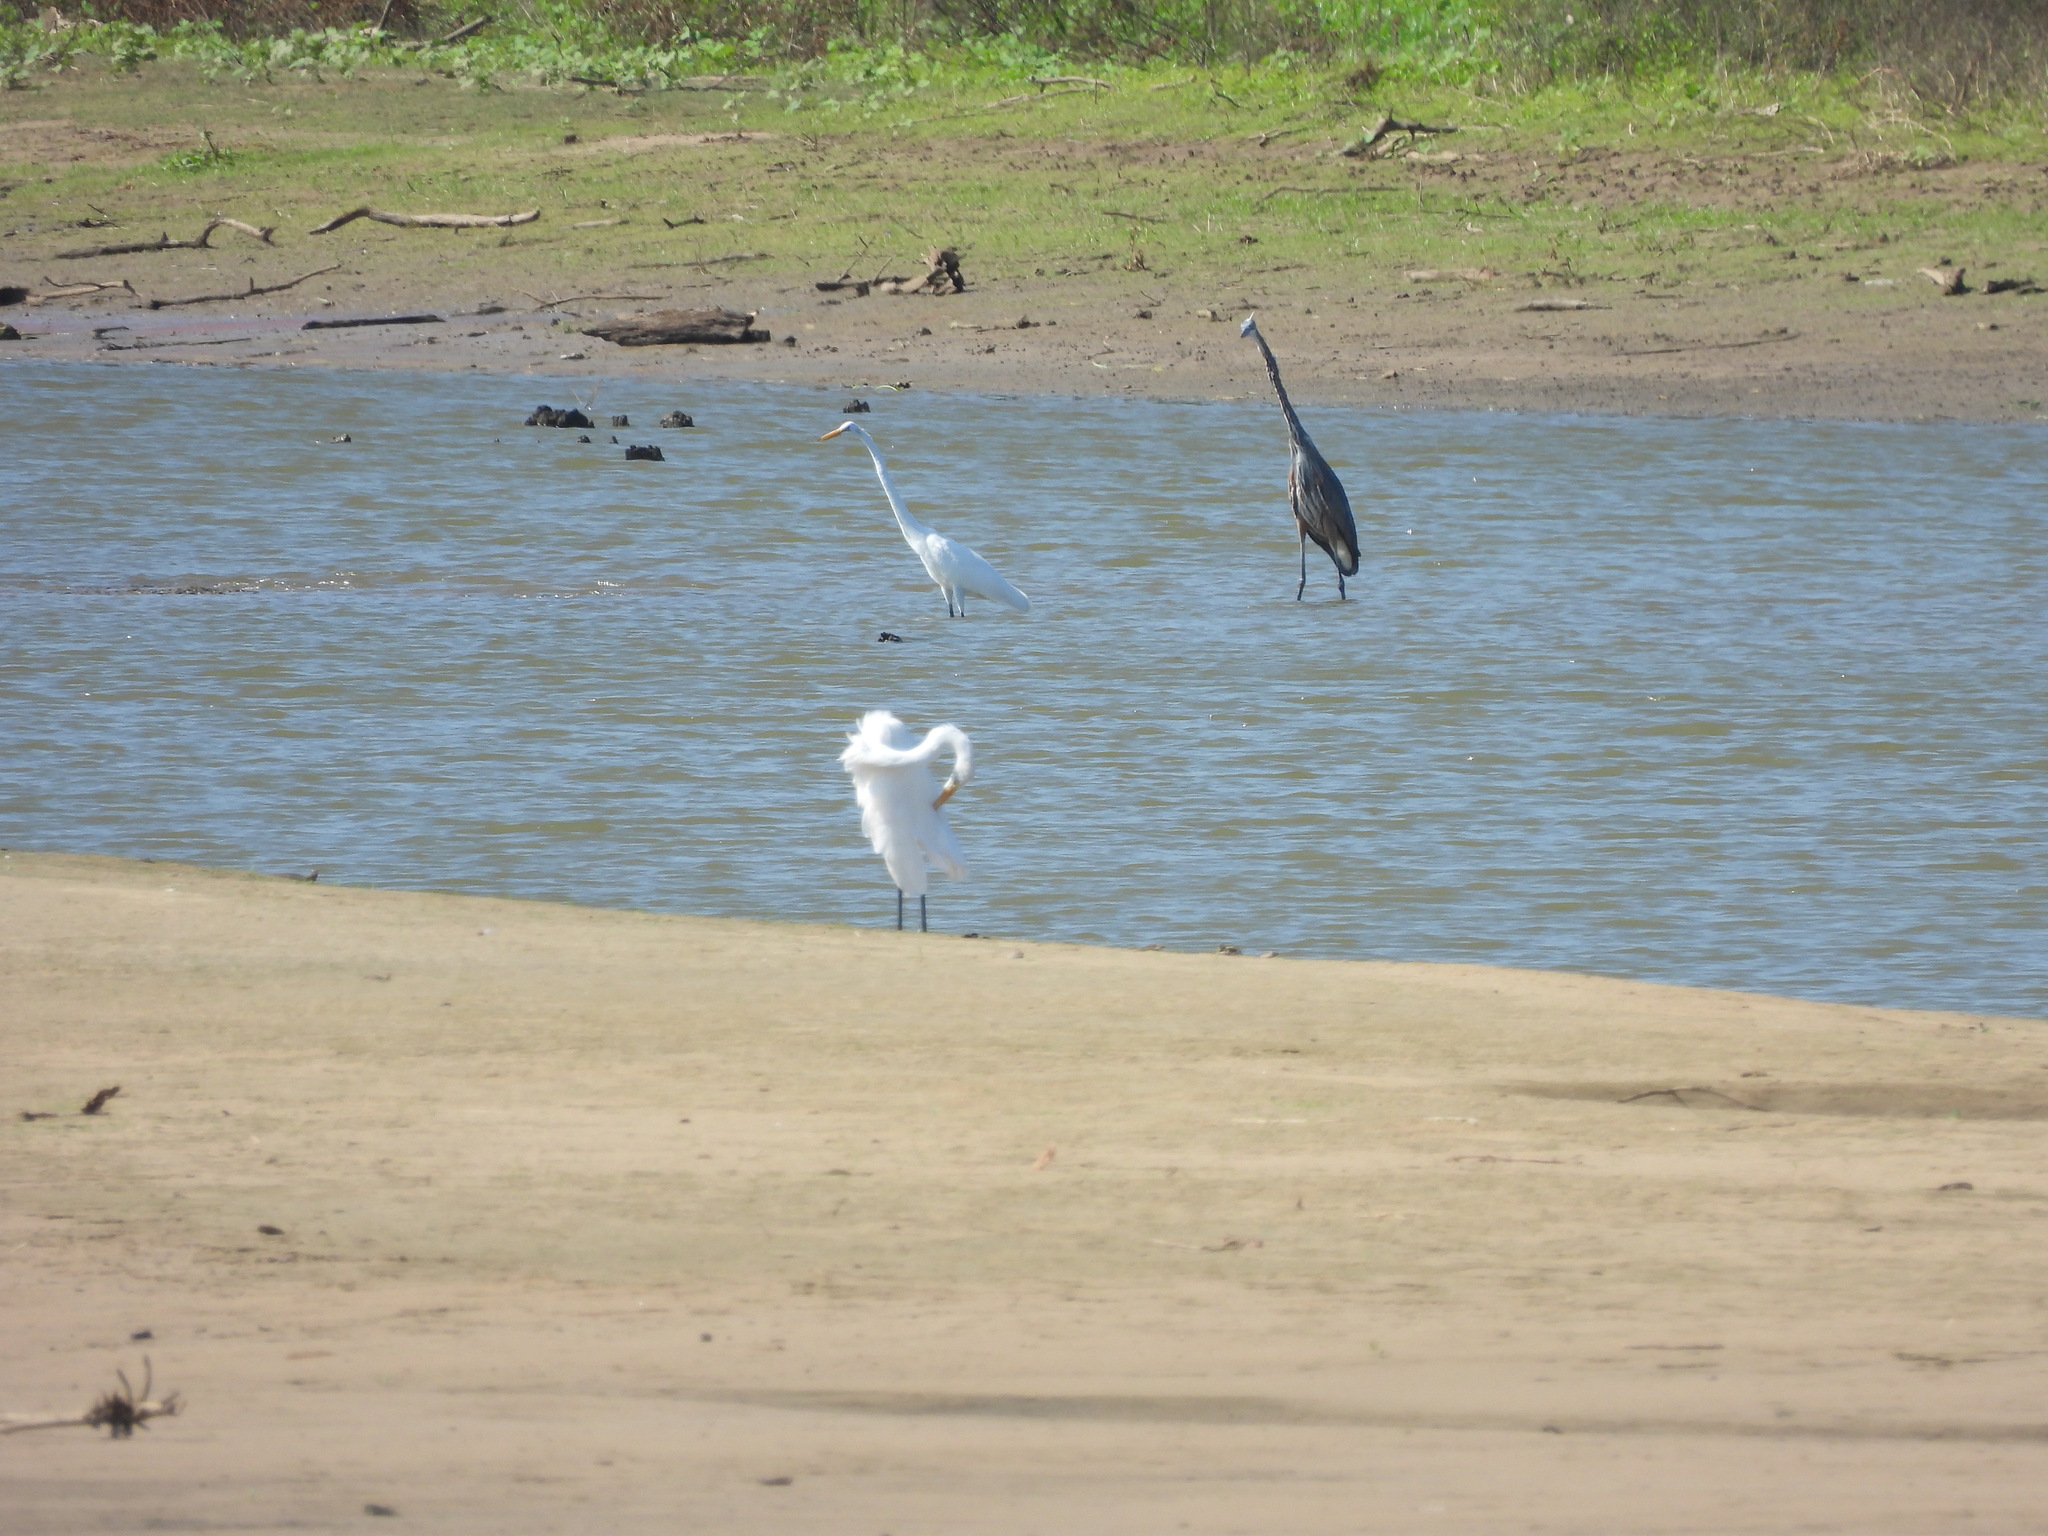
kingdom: Animalia
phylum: Chordata
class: Aves
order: Pelecaniformes
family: Ardeidae
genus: Ardea
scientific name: Ardea alba
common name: Great egret
